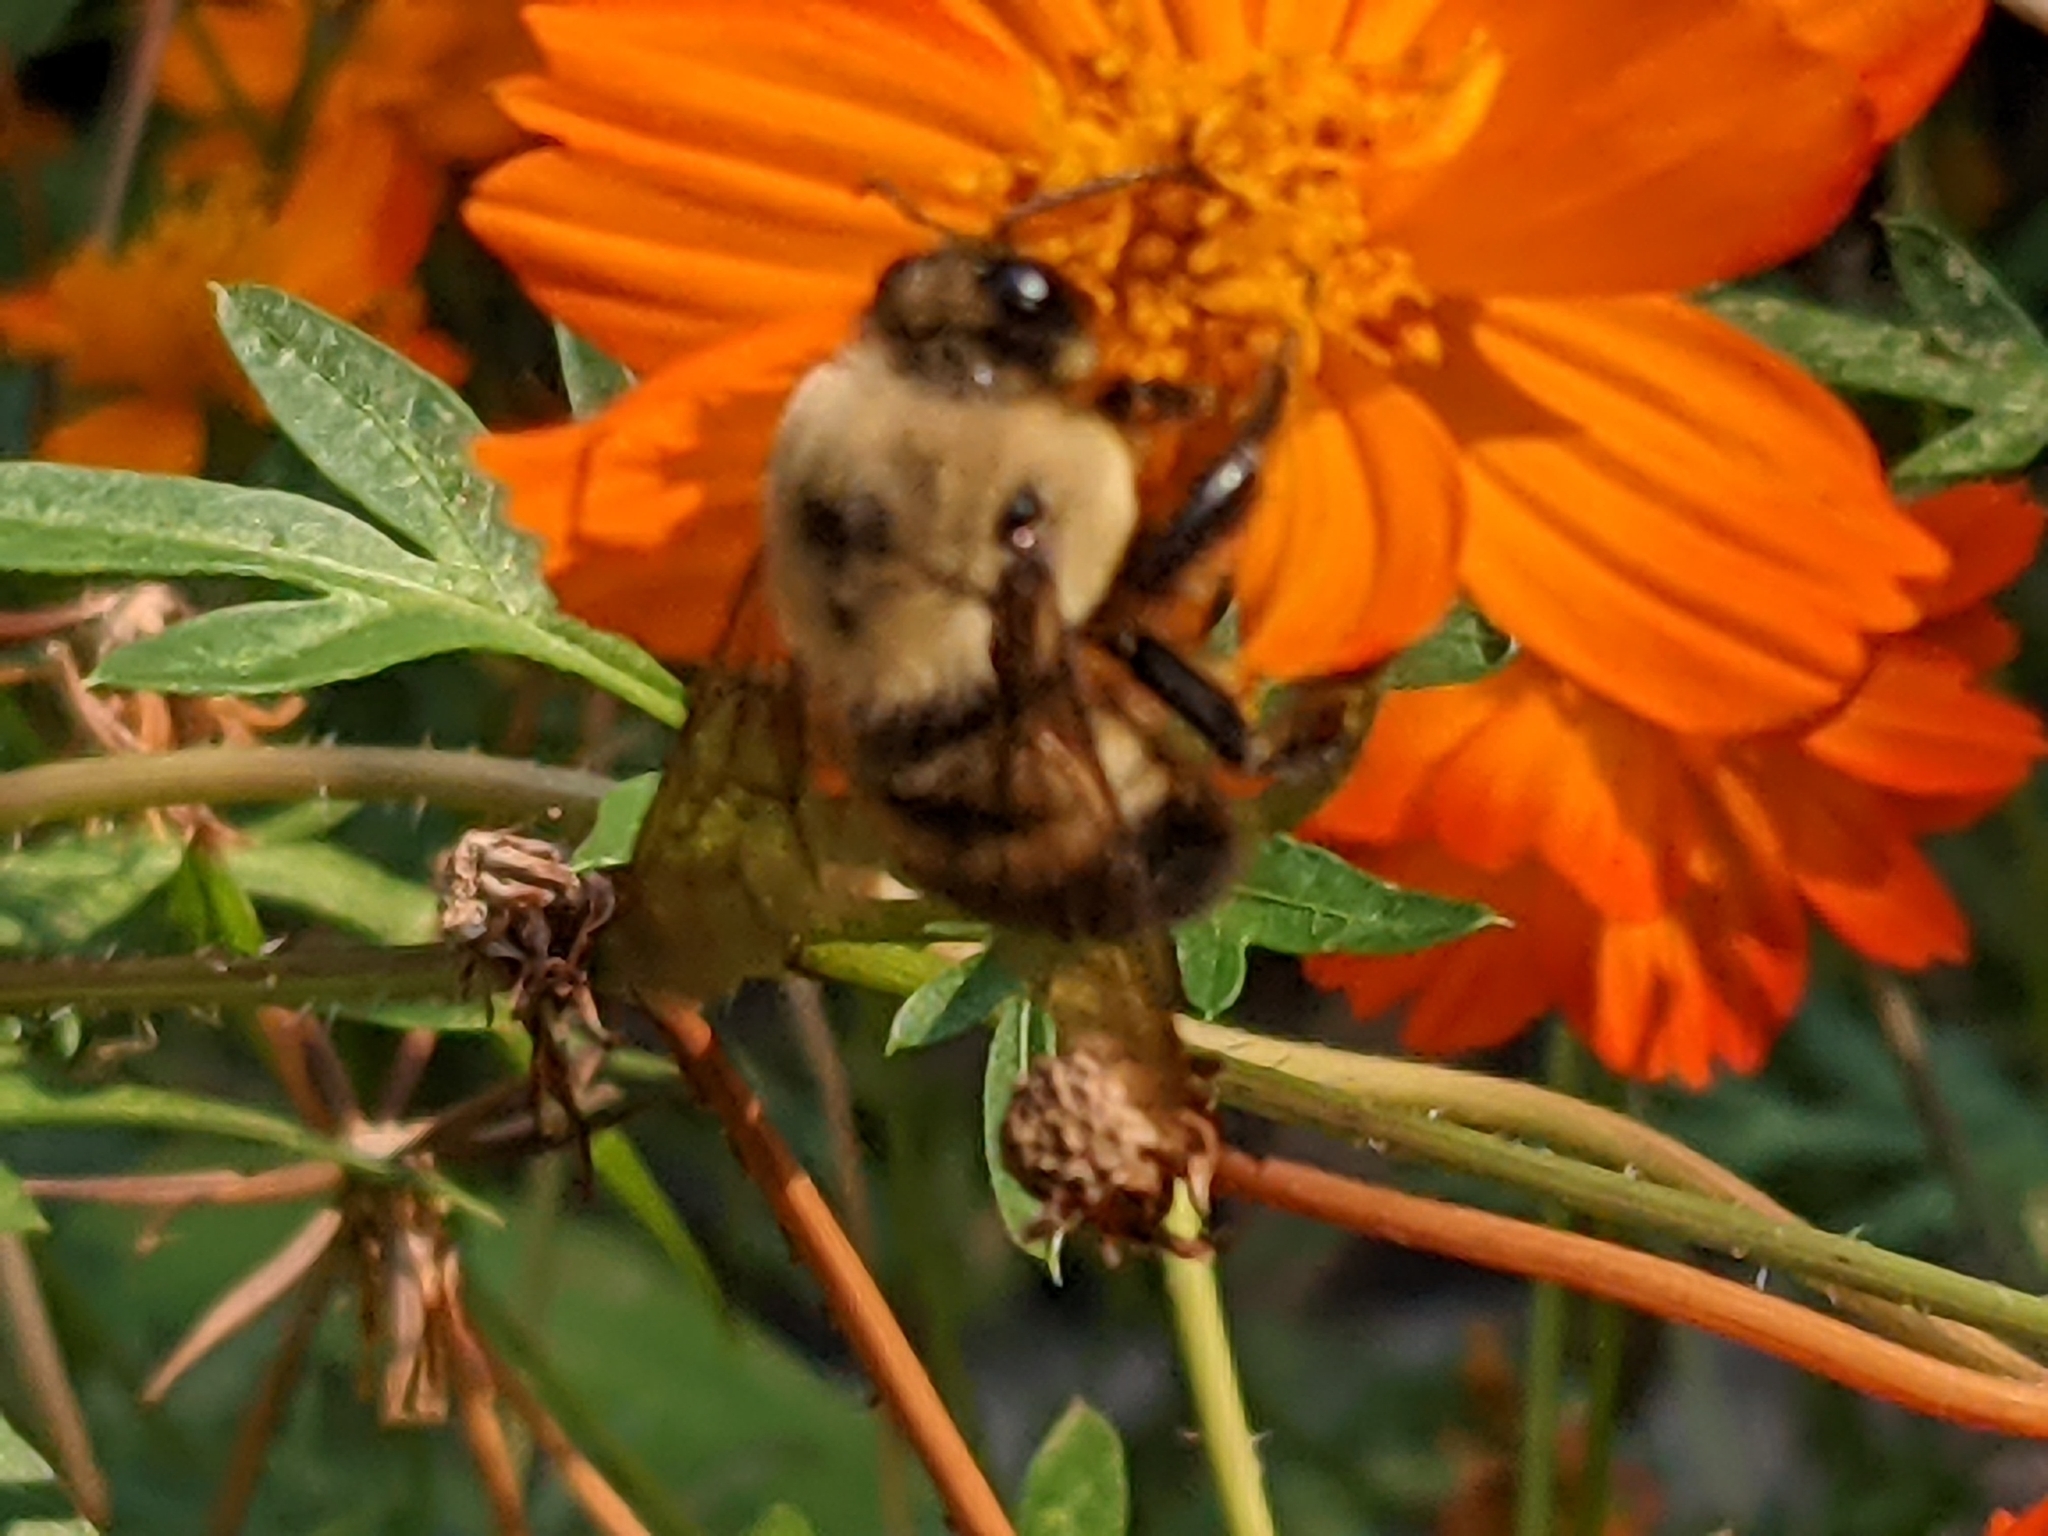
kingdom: Animalia
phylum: Arthropoda
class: Insecta
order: Hymenoptera
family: Apidae
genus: Bombus
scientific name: Bombus griseocollis
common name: Brown-belted bumble bee
